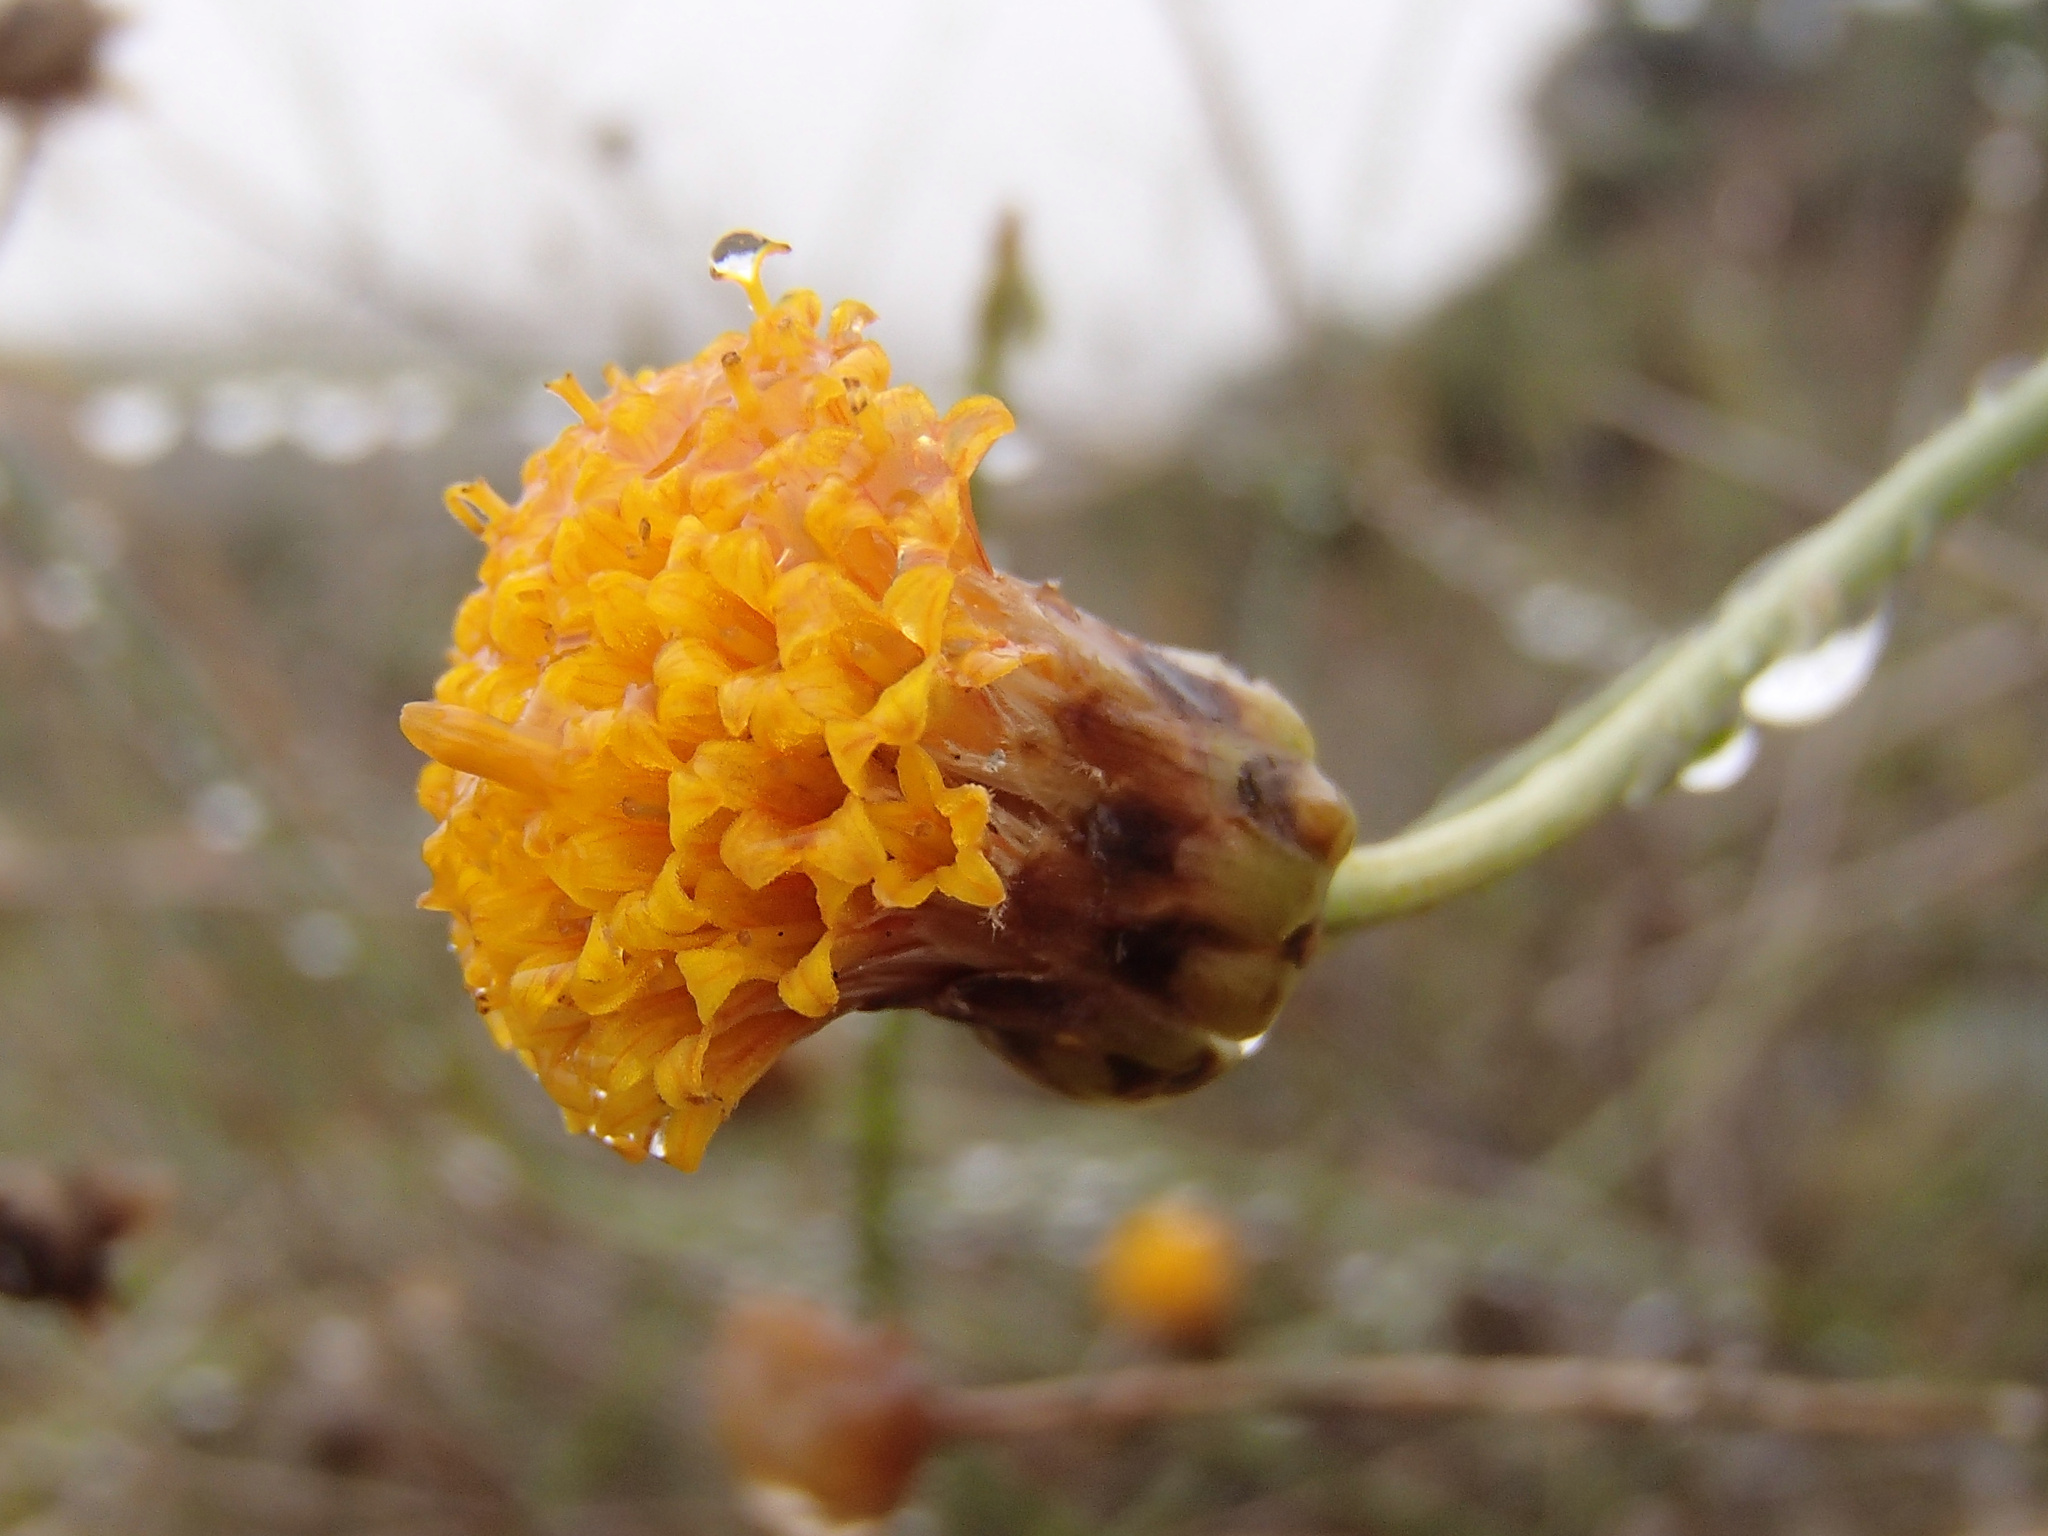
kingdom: Plantae
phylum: Tracheophyta
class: Magnoliopsida
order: Asterales
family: Asteraceae
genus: Bebbia
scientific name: Bebbia juncea
